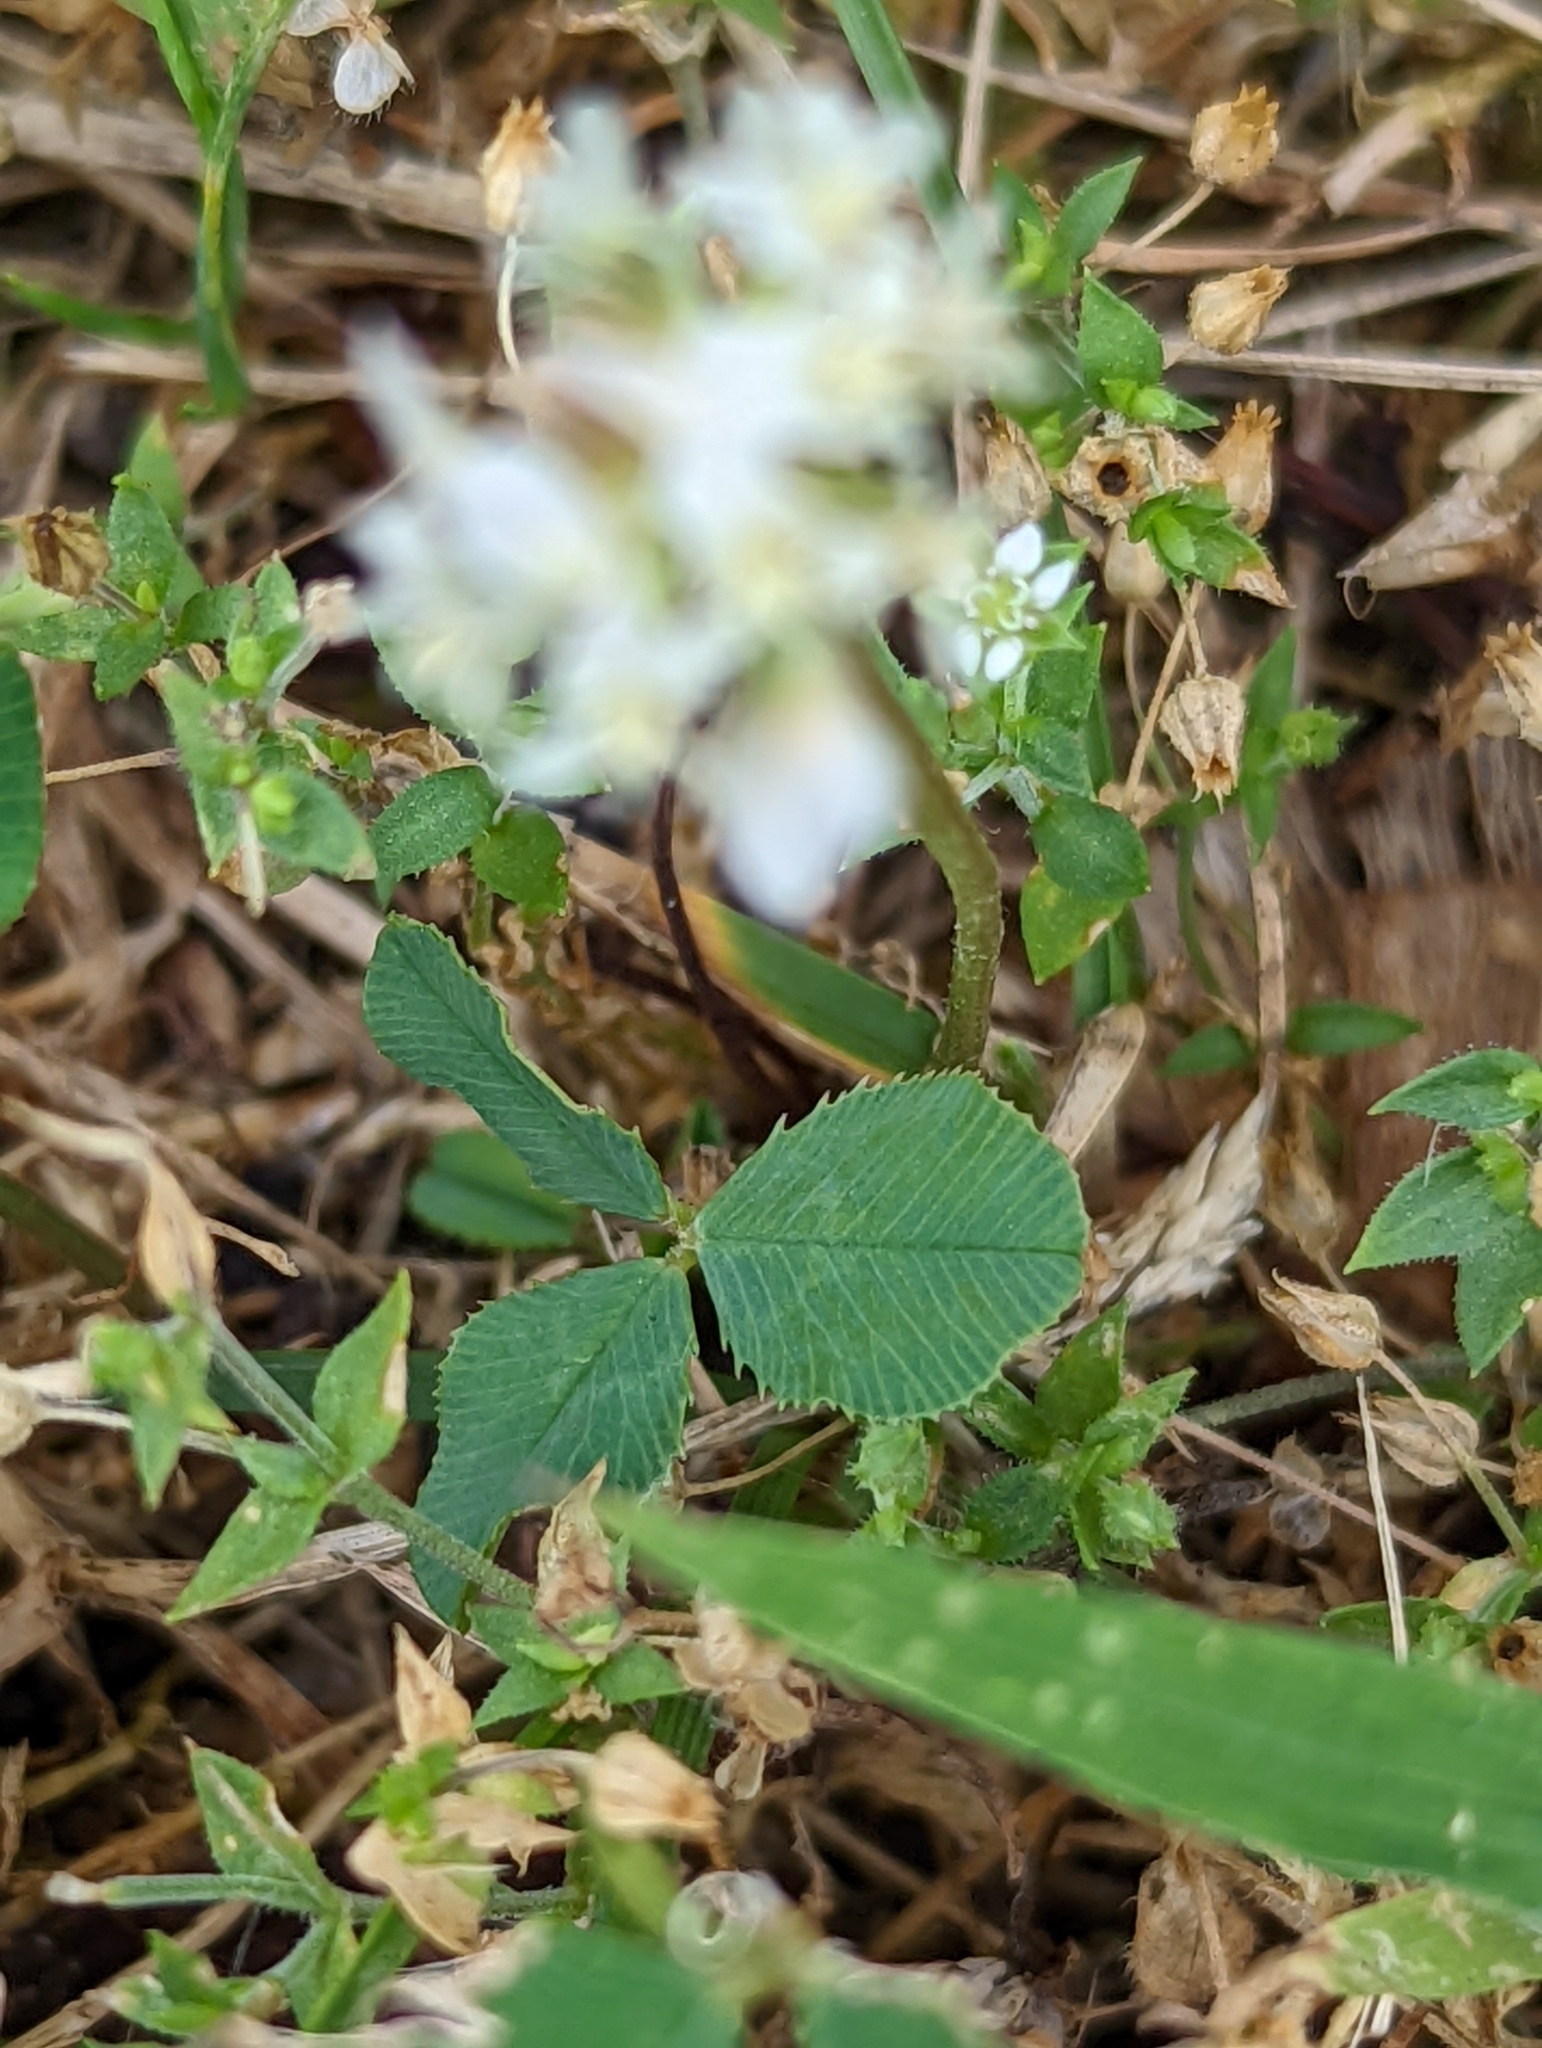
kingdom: Plantae
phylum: Tracheophyta
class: Magnoliopsida
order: Fabales
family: Fabaceae
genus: Trifolium
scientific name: Trifolium repens
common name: White clover
